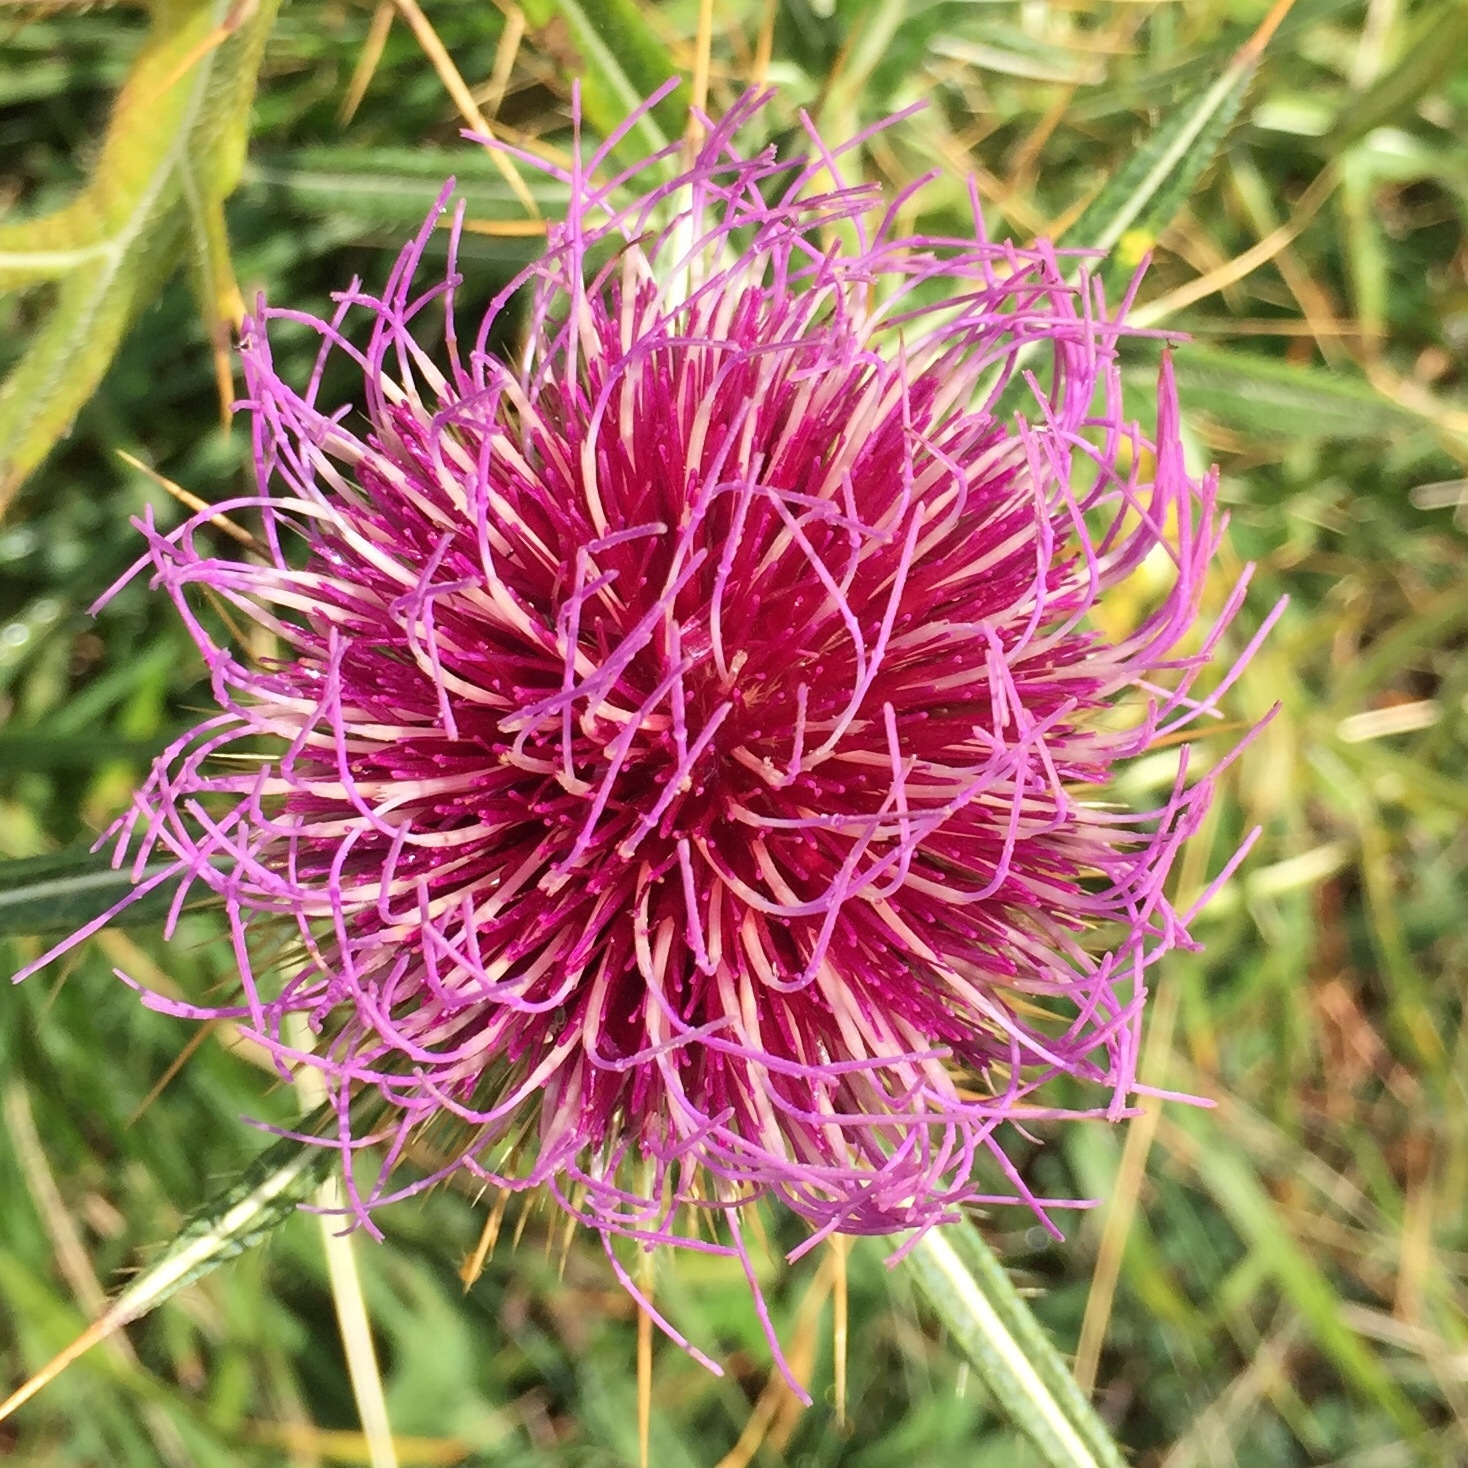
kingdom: Plantae
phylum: Tracheophyta
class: Magnoliopsida
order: Asterales
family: Asteraceae
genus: Lophiolepis
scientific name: Lophiolepis morisiana
